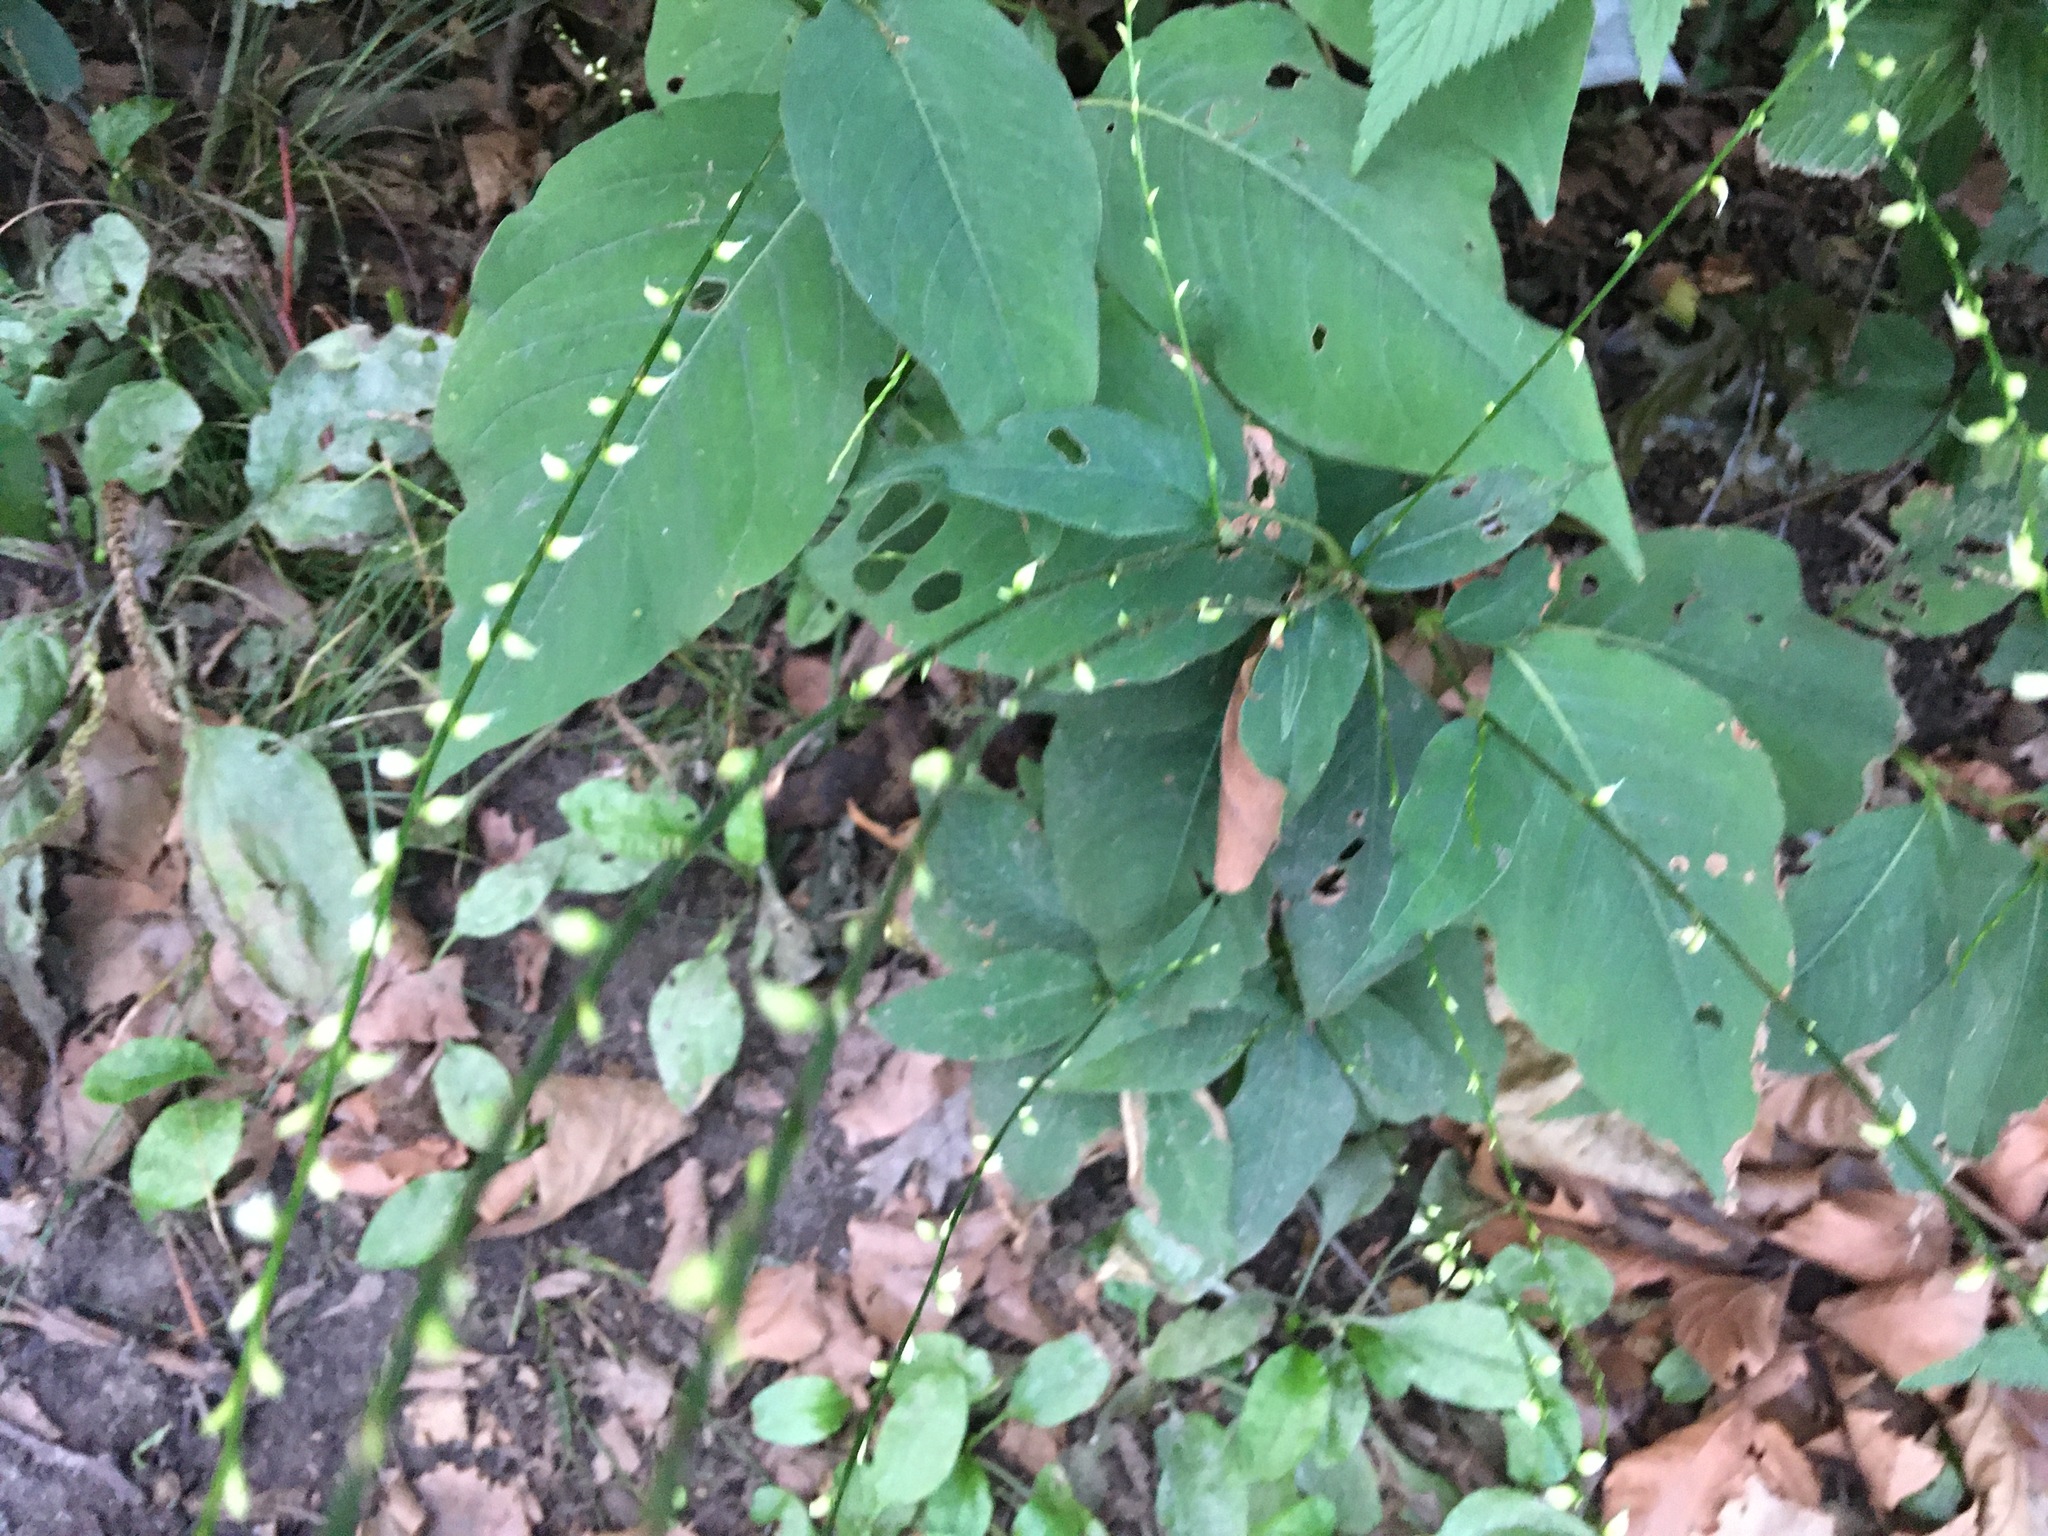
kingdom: Plantae
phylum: Tracheophyta
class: Magnoliopsida
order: Caryophyllales
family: Polygonaceae
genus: Persicaria
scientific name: Persicaria virginiana
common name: Jumpseed
